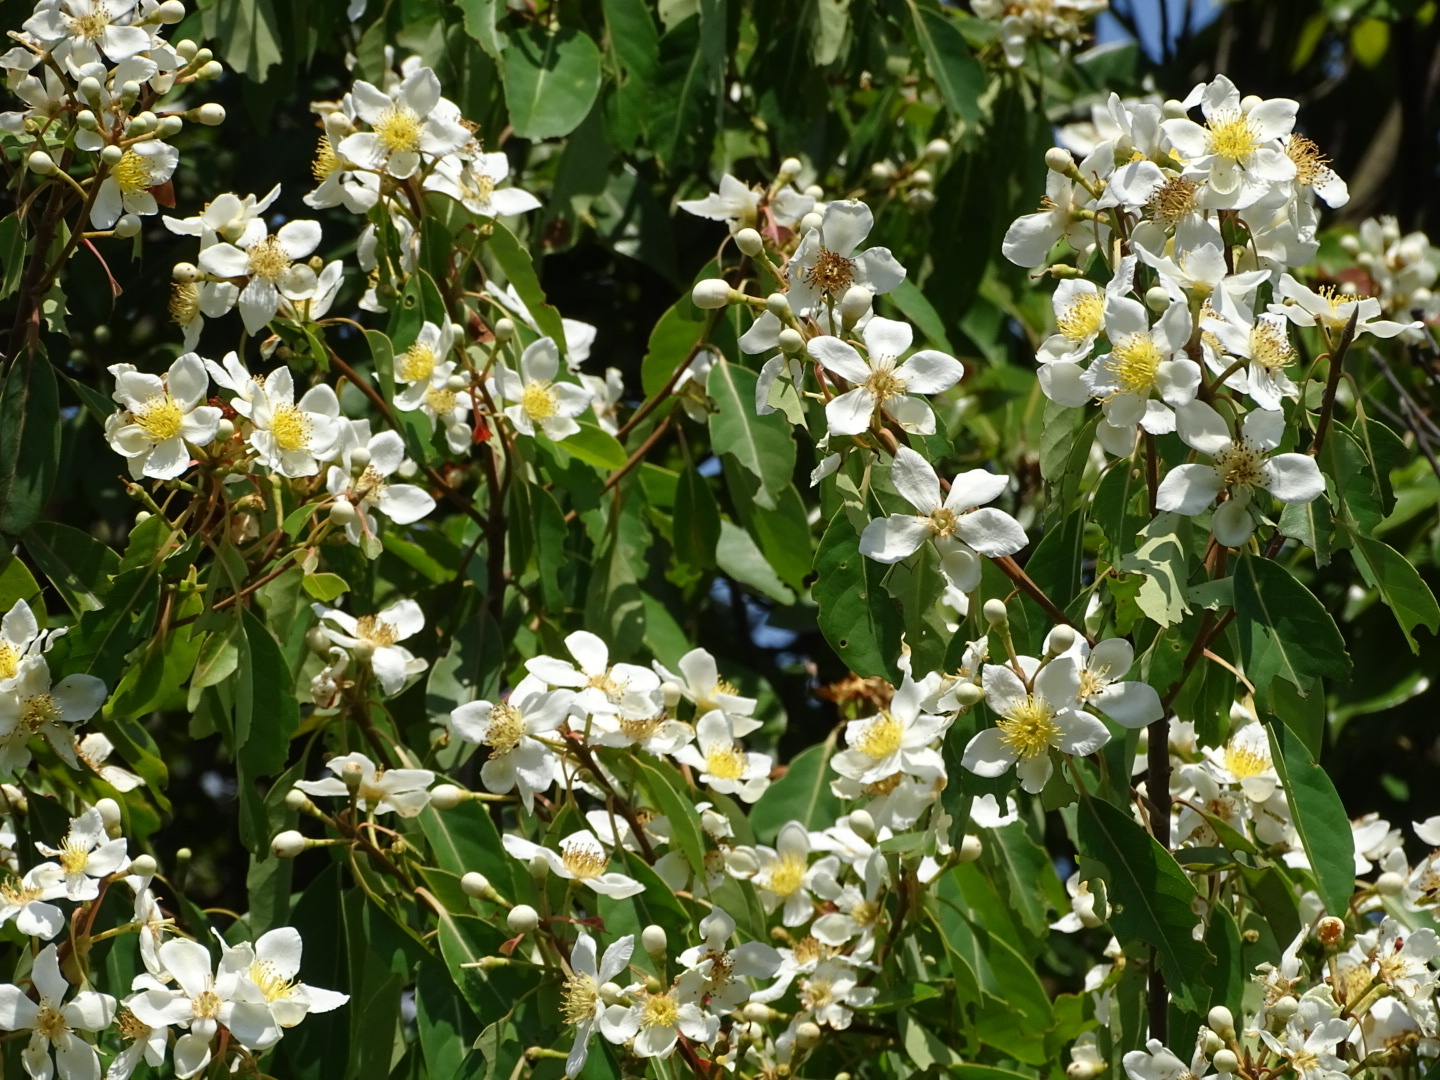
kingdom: Plantae
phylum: Tracheophyta
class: Magnoliopsida
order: Ericales
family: Theaceae
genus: Schima
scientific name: Schima superba
